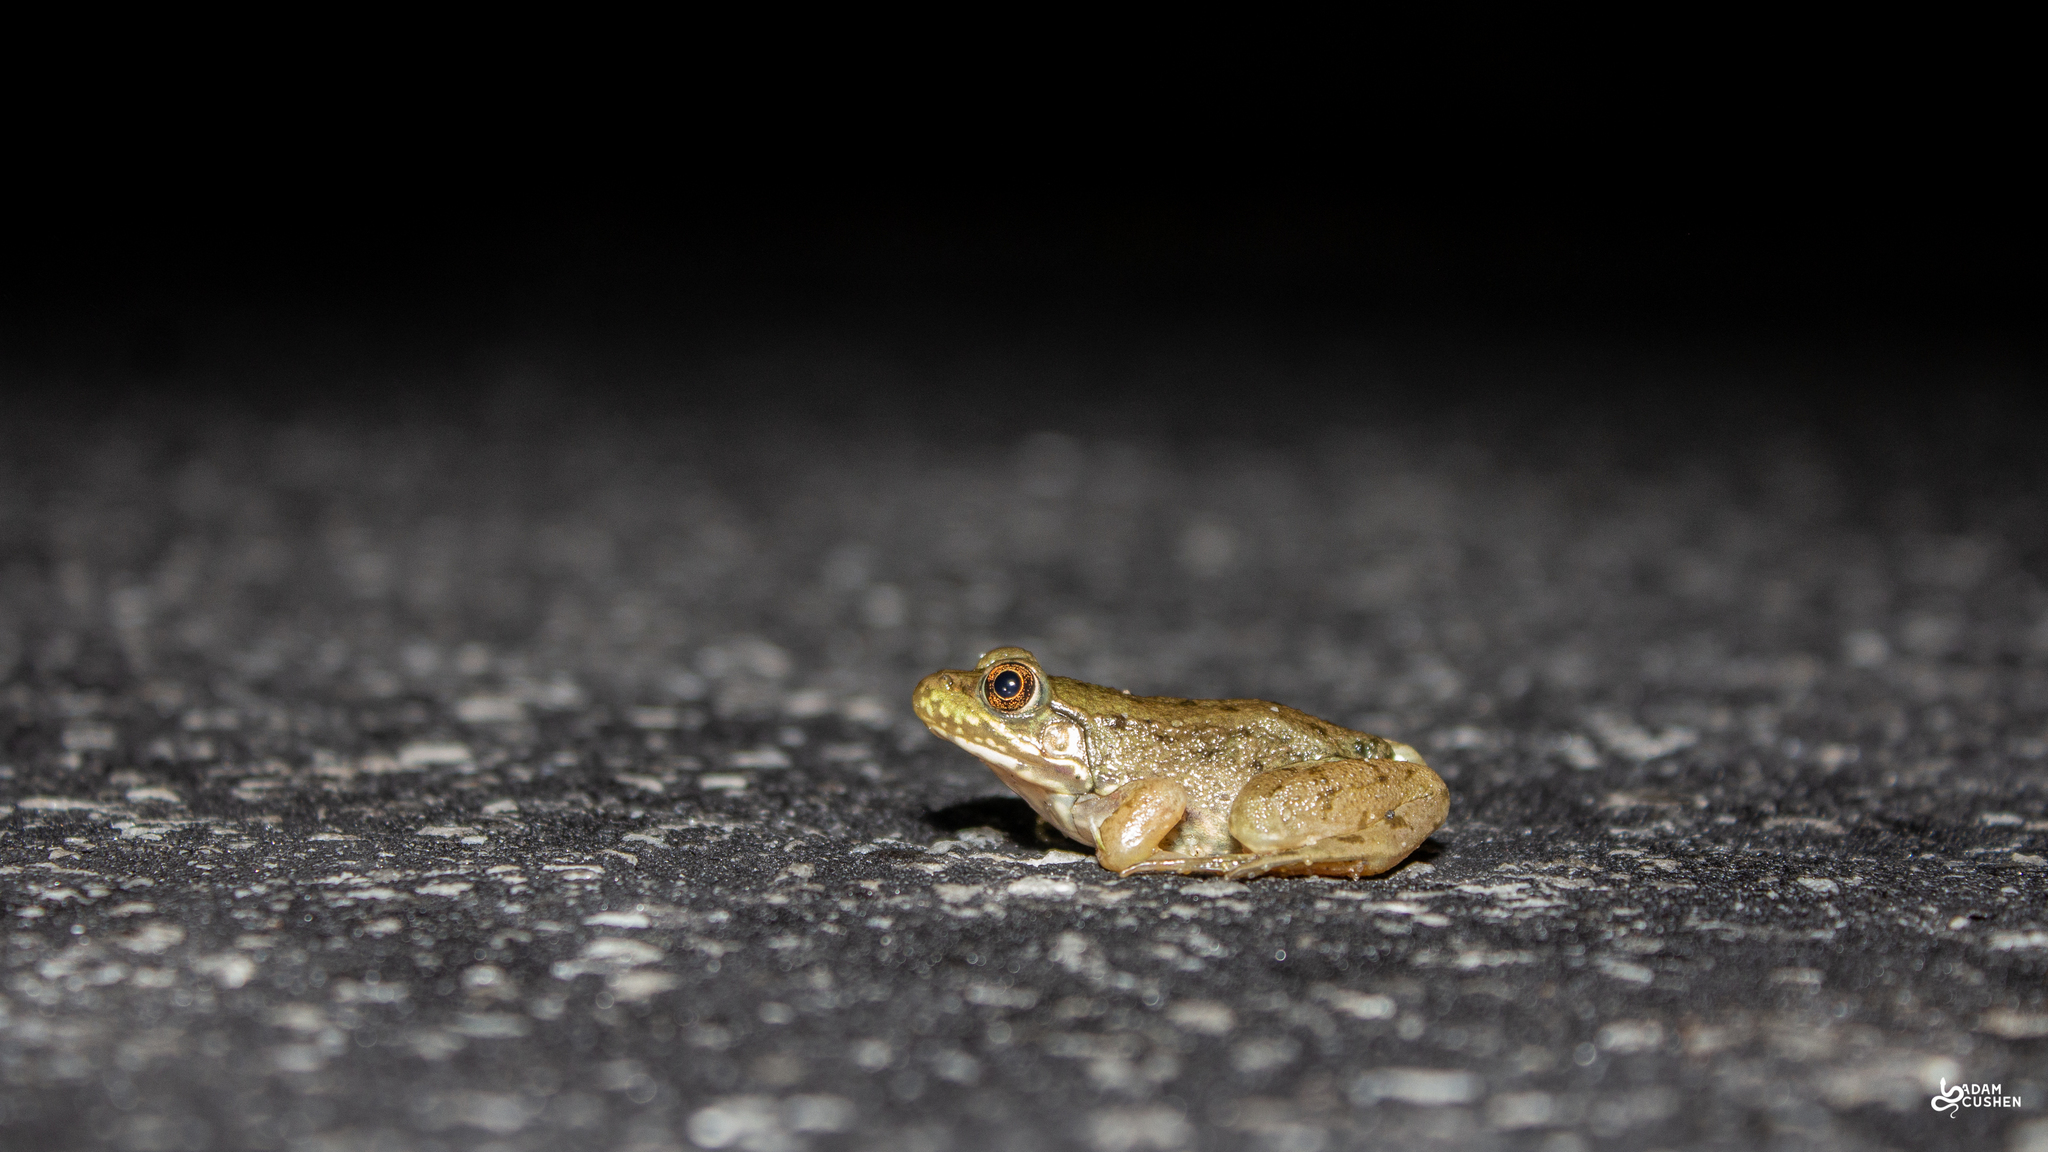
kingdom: Animalia
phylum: Chordata
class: Amphibia
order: Anura
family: Ranidae
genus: Lithobates
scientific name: Lithobates clamitans
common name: Green frog
